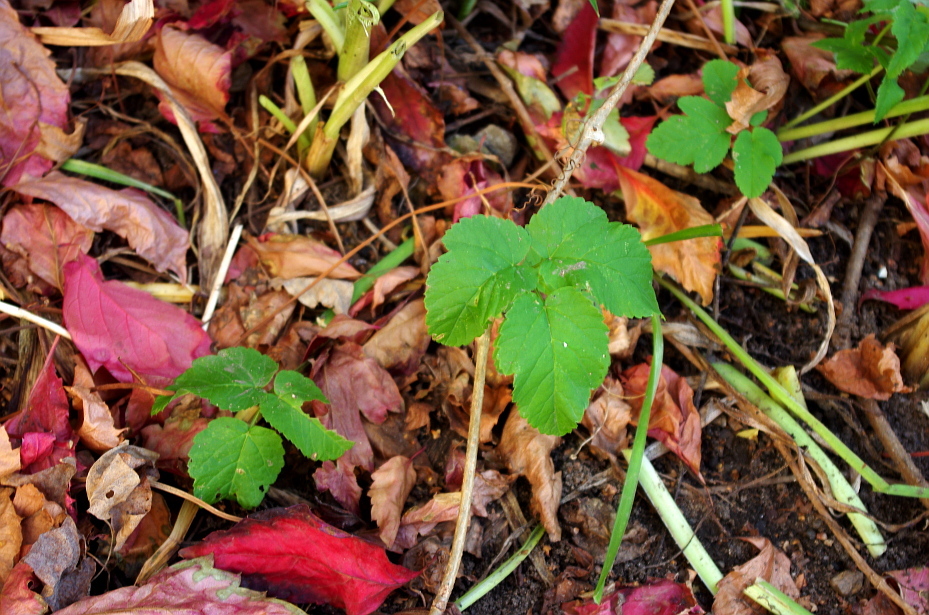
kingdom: Plantae
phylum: Tracheophyta
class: Magnoliopsida
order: Apiales
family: Apiaceae
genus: Aegopodium
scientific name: Aegopodium podagraria
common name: Ground-elder
